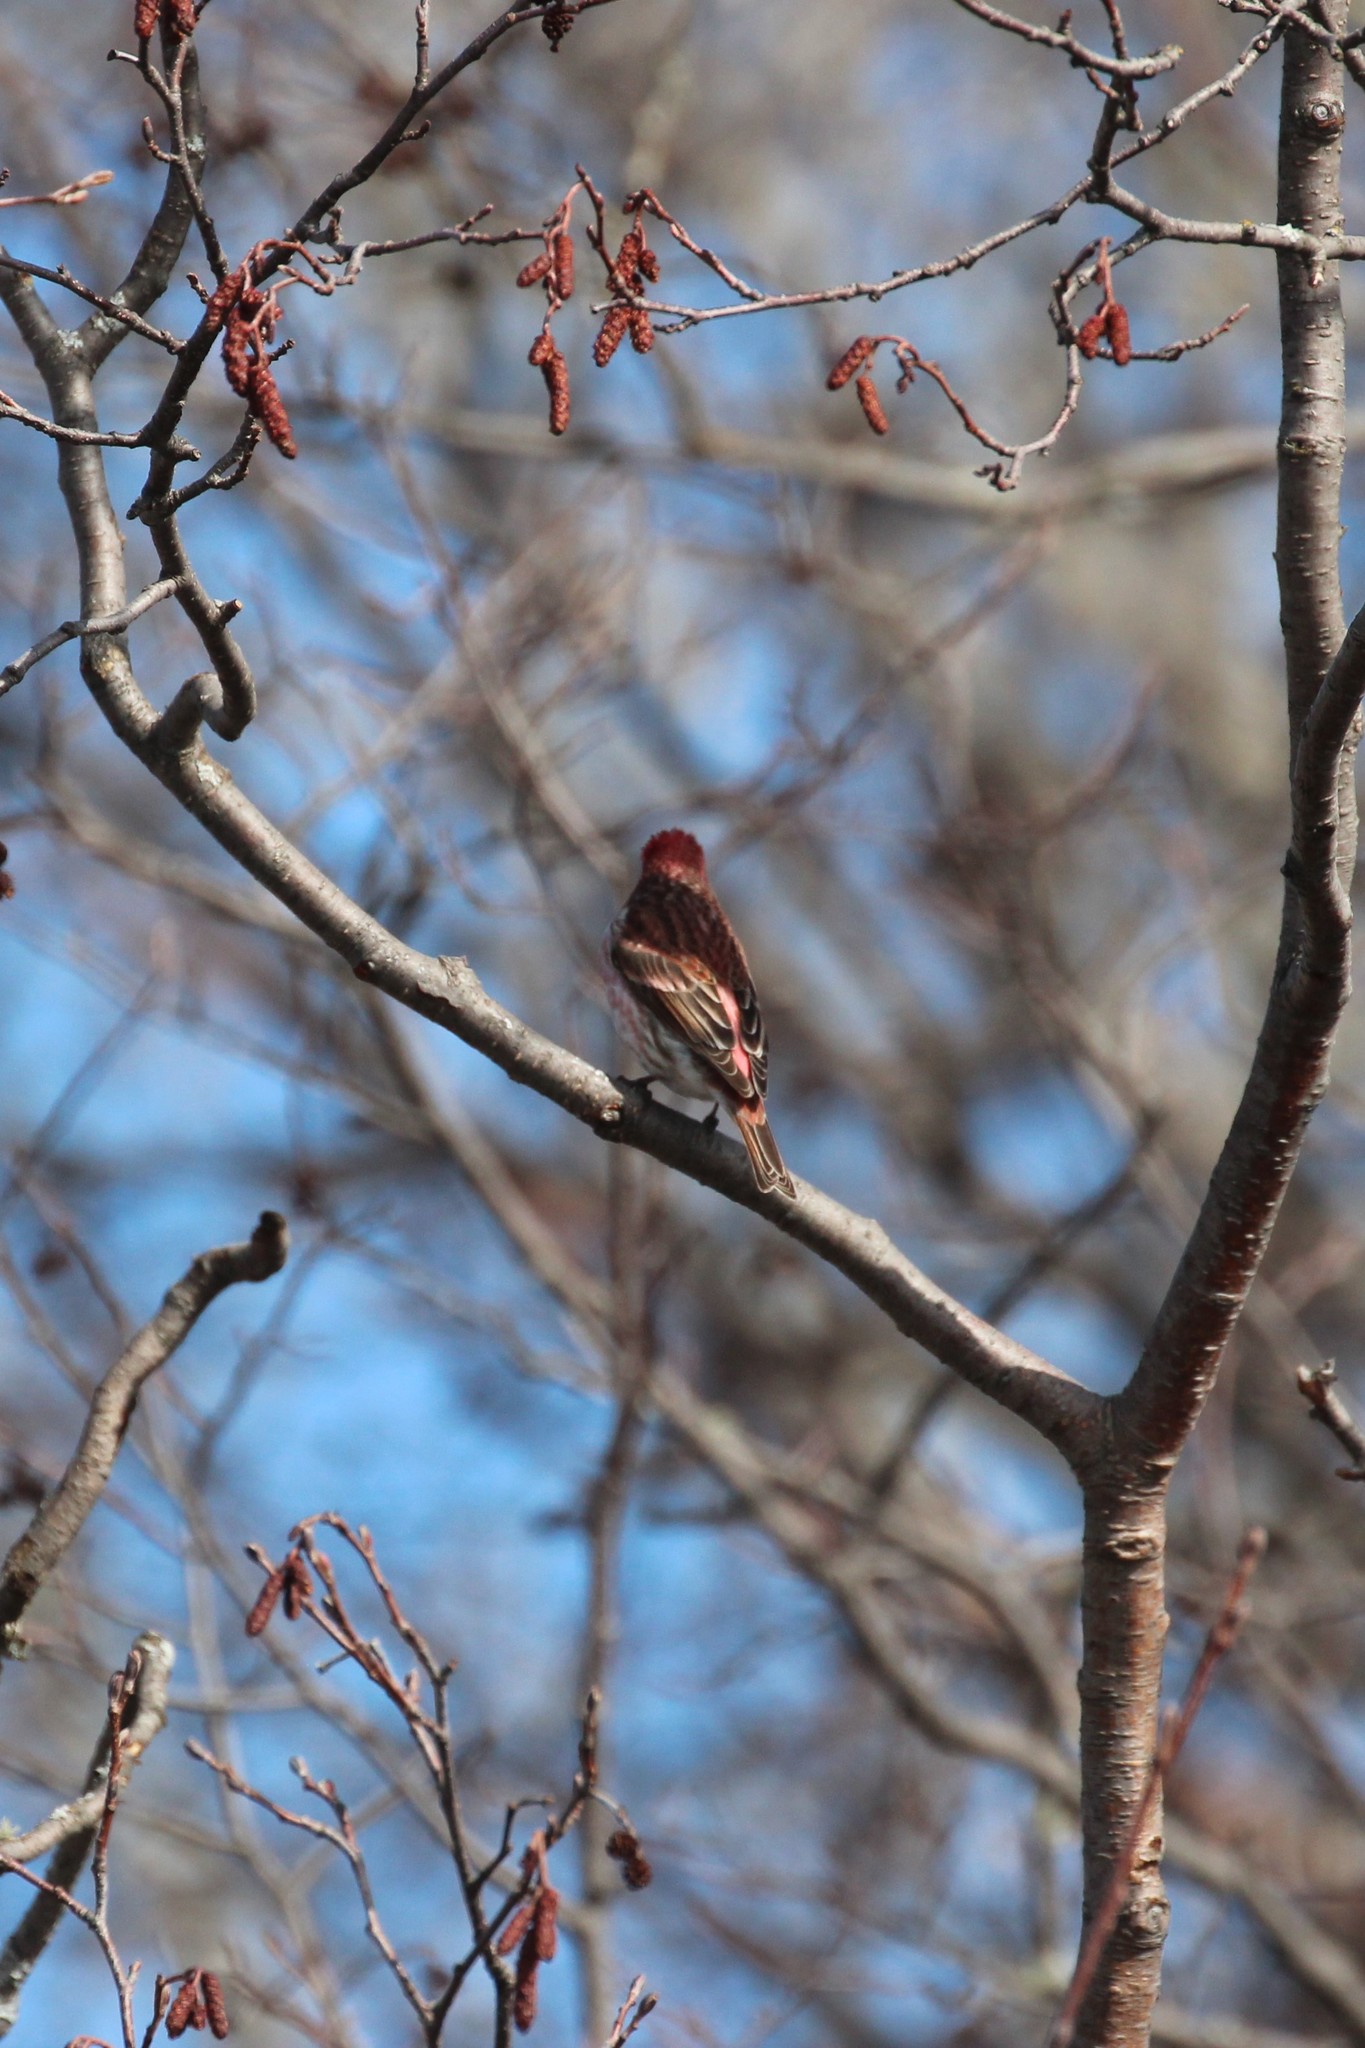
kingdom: Animalia
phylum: Chordata
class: Aves
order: Passeriformes
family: Fringillidae
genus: Haemorhous
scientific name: Haemorhous purpureus
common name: Purple finch
